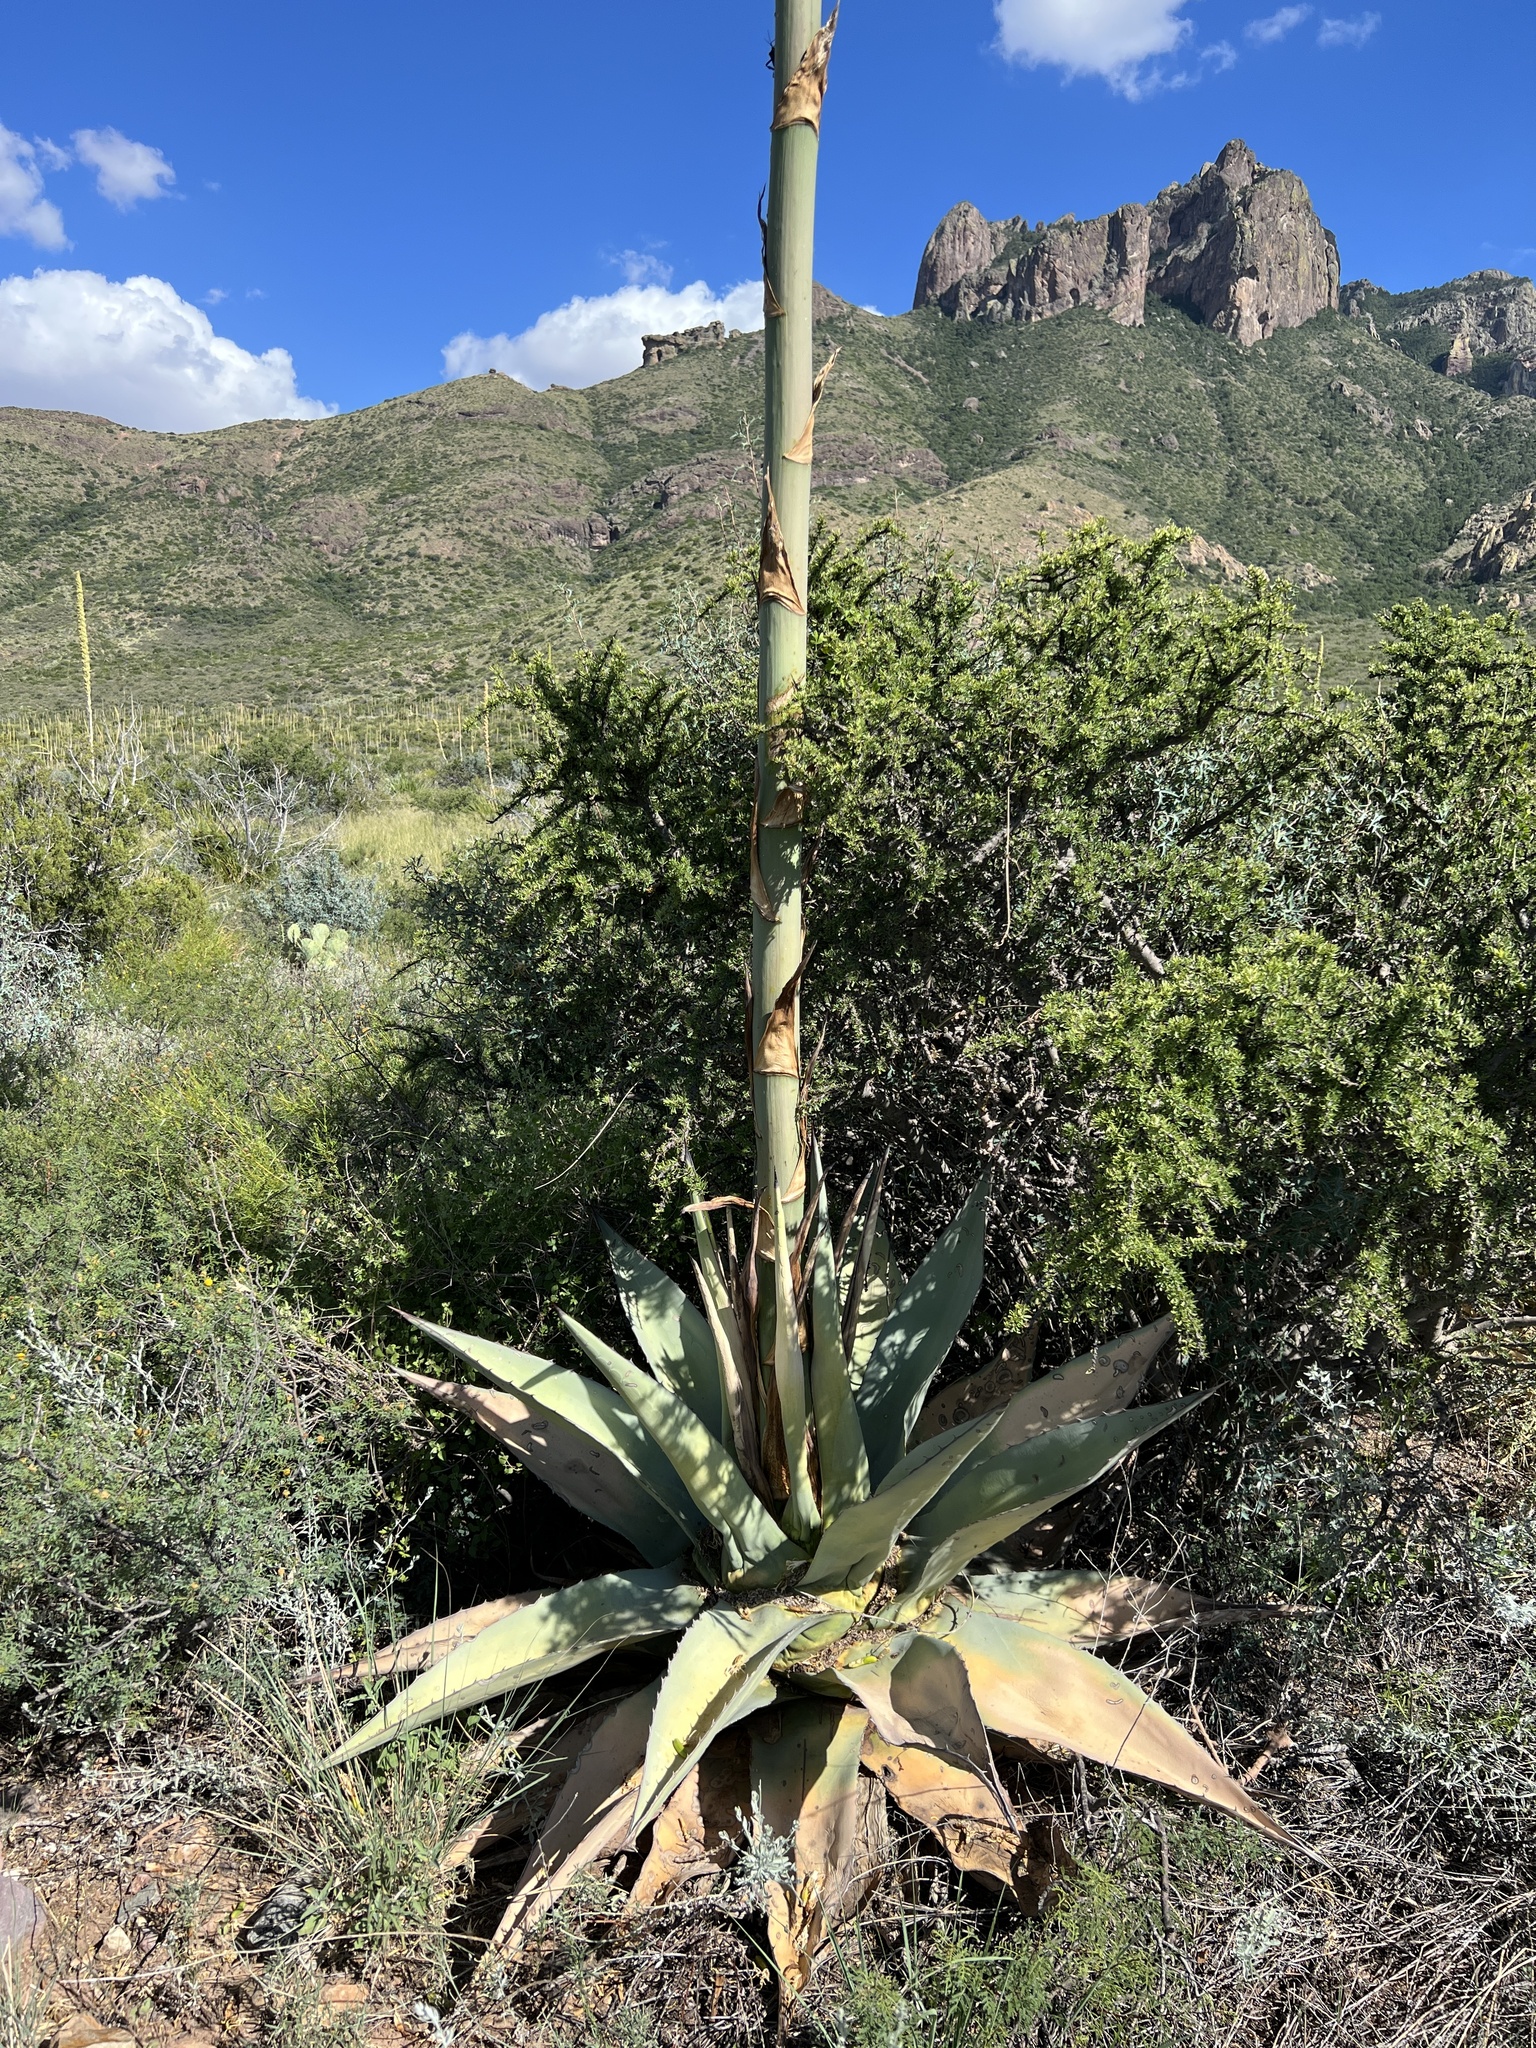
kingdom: Plantae
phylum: Tracheophyta
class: Liliopsida
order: Asparagales
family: Asparagaceae
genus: Agave
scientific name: Agave havardiana
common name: Havard agave
